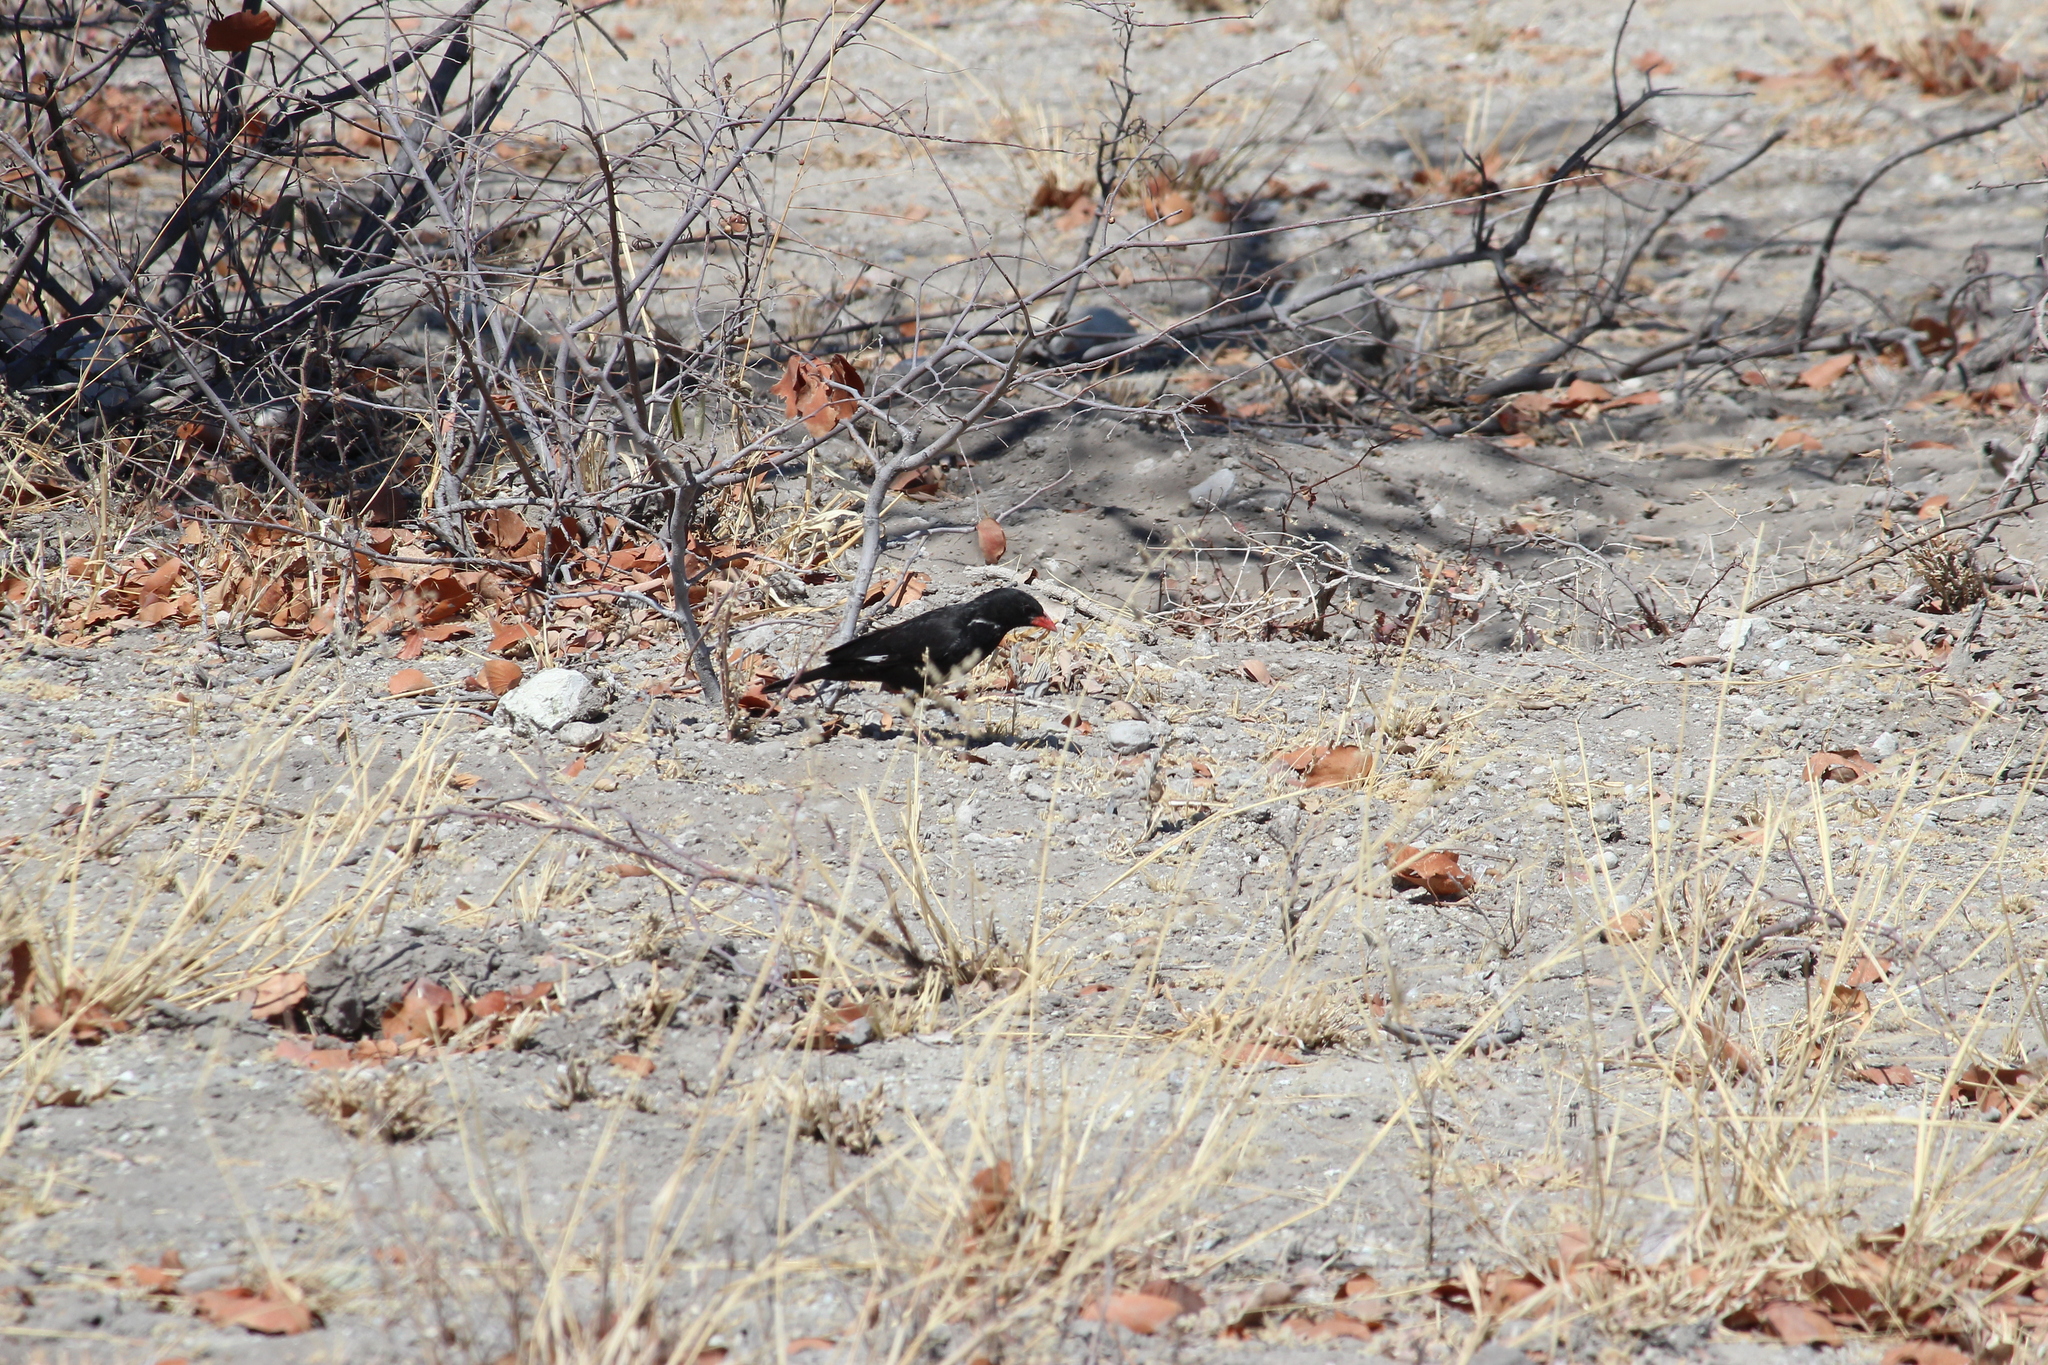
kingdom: Animalia
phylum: Chordata
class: Aves
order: Passeriformes
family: Ploceidae
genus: Bubalornis
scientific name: Bubalornis niger
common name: Red-billed buffalo weaver
